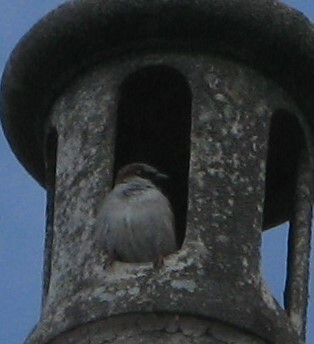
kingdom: Animalia
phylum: Chordata
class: Aves
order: Passeriformes
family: Passeridae
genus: Passer
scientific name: Passer domesticus
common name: House sparrow
